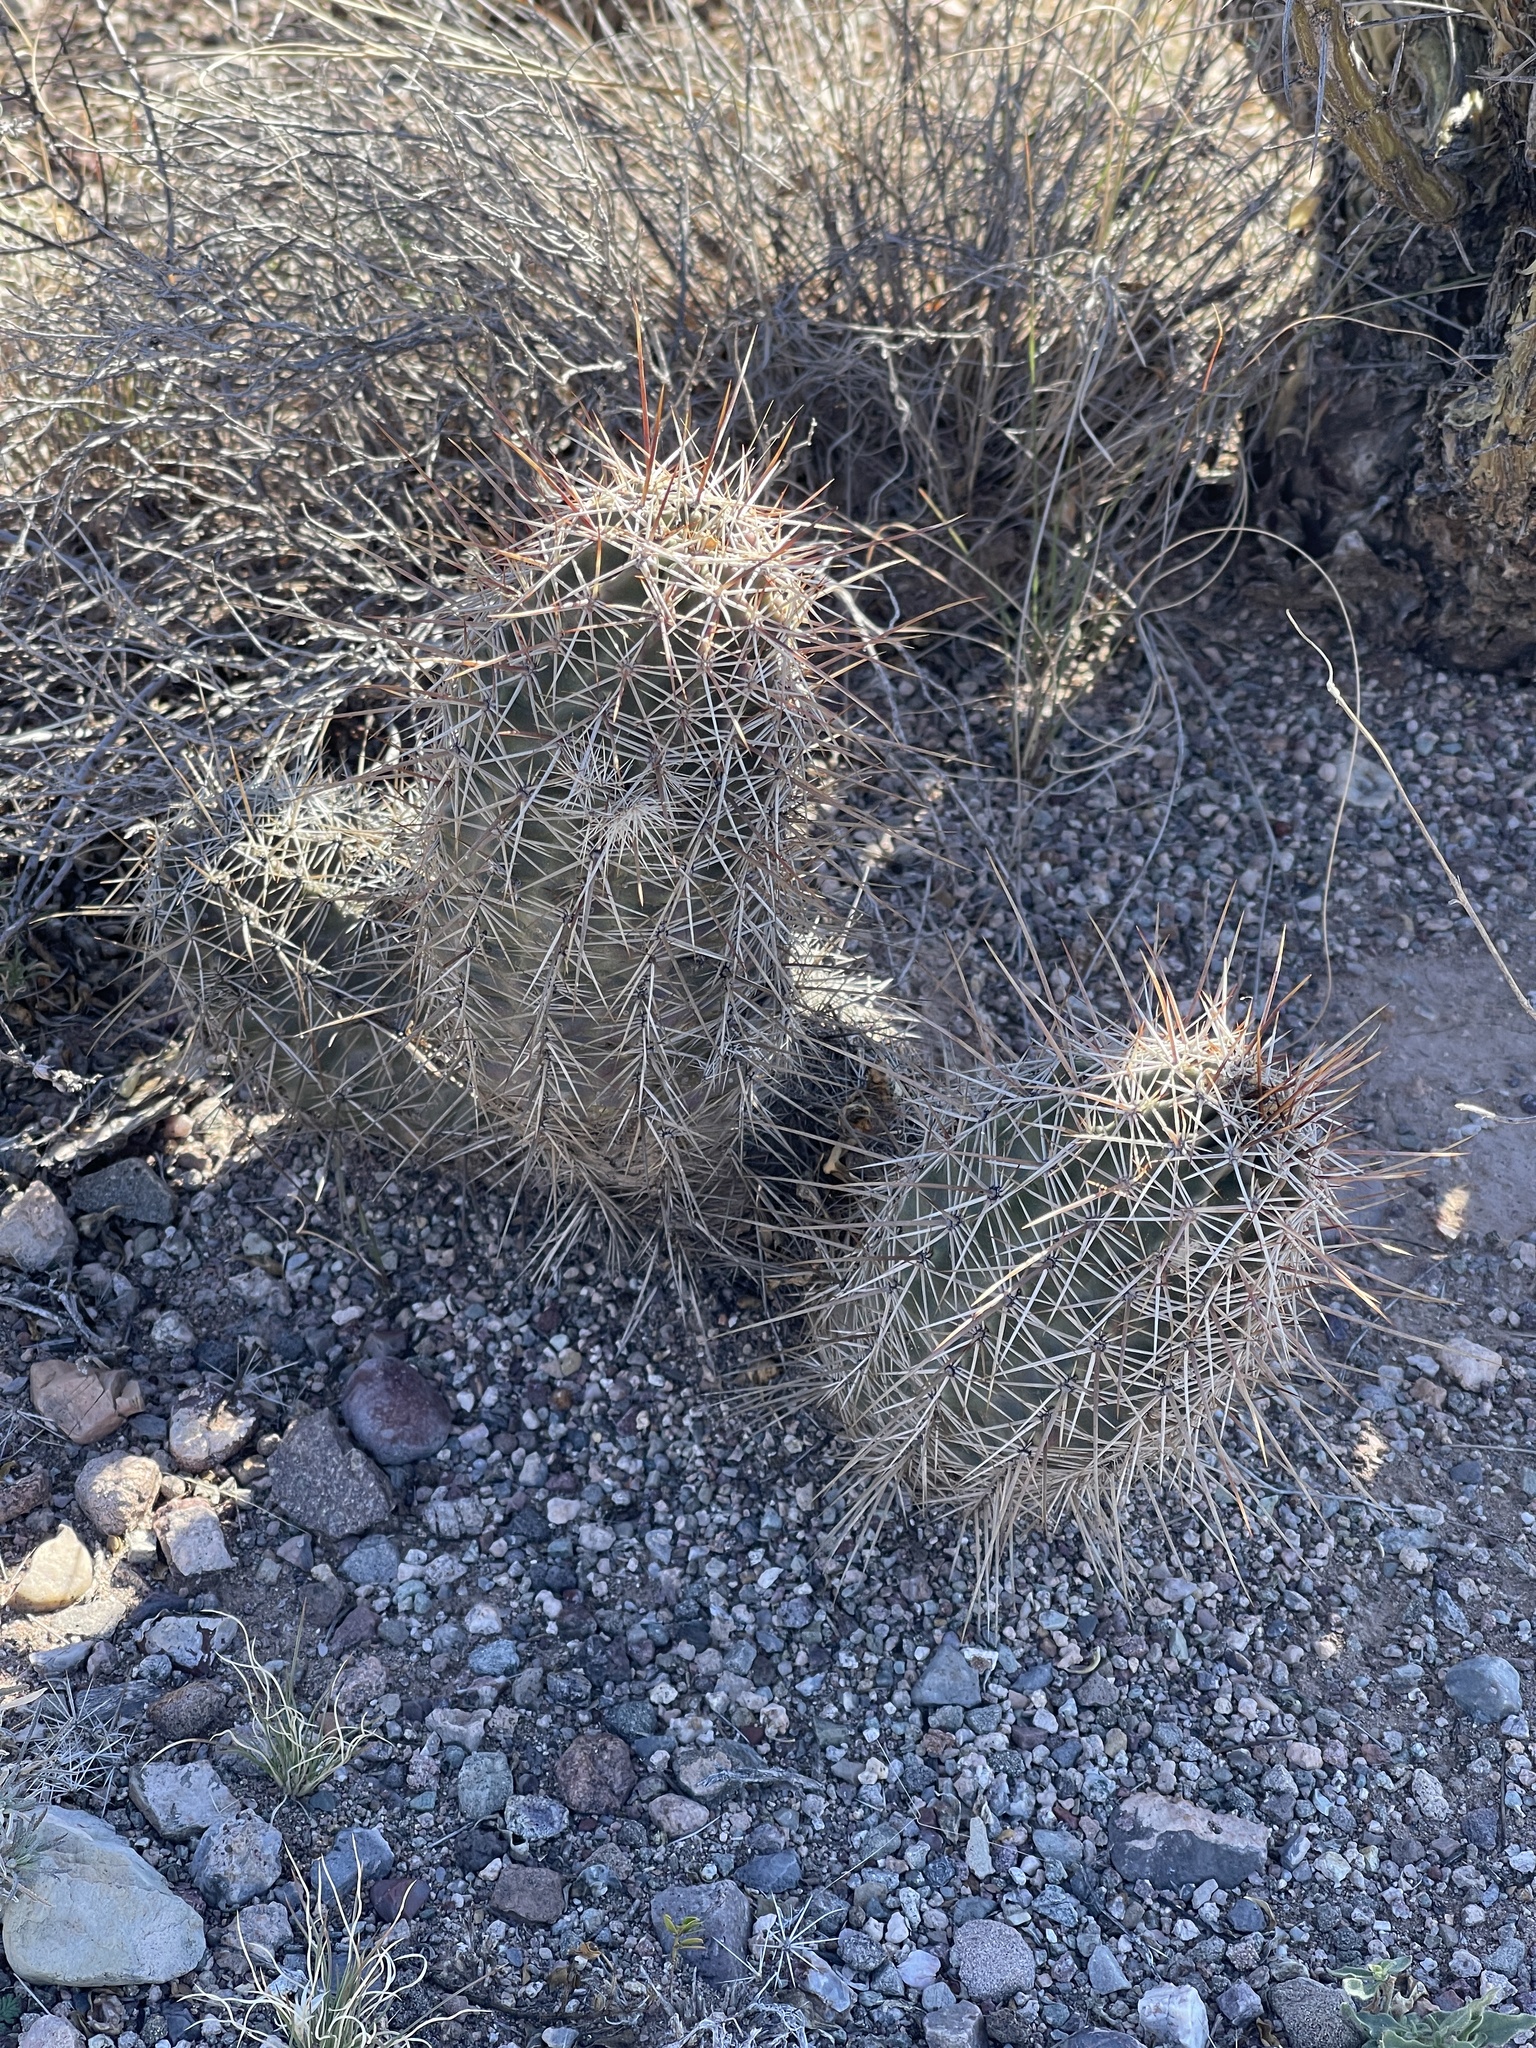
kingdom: Plantae
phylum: Tracheophyta
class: Magnoliopsida
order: Caryophyllales
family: Cactaceae
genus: Echinocereus
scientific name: Echinocereus fasciculatus
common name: Bundle hedgehog
